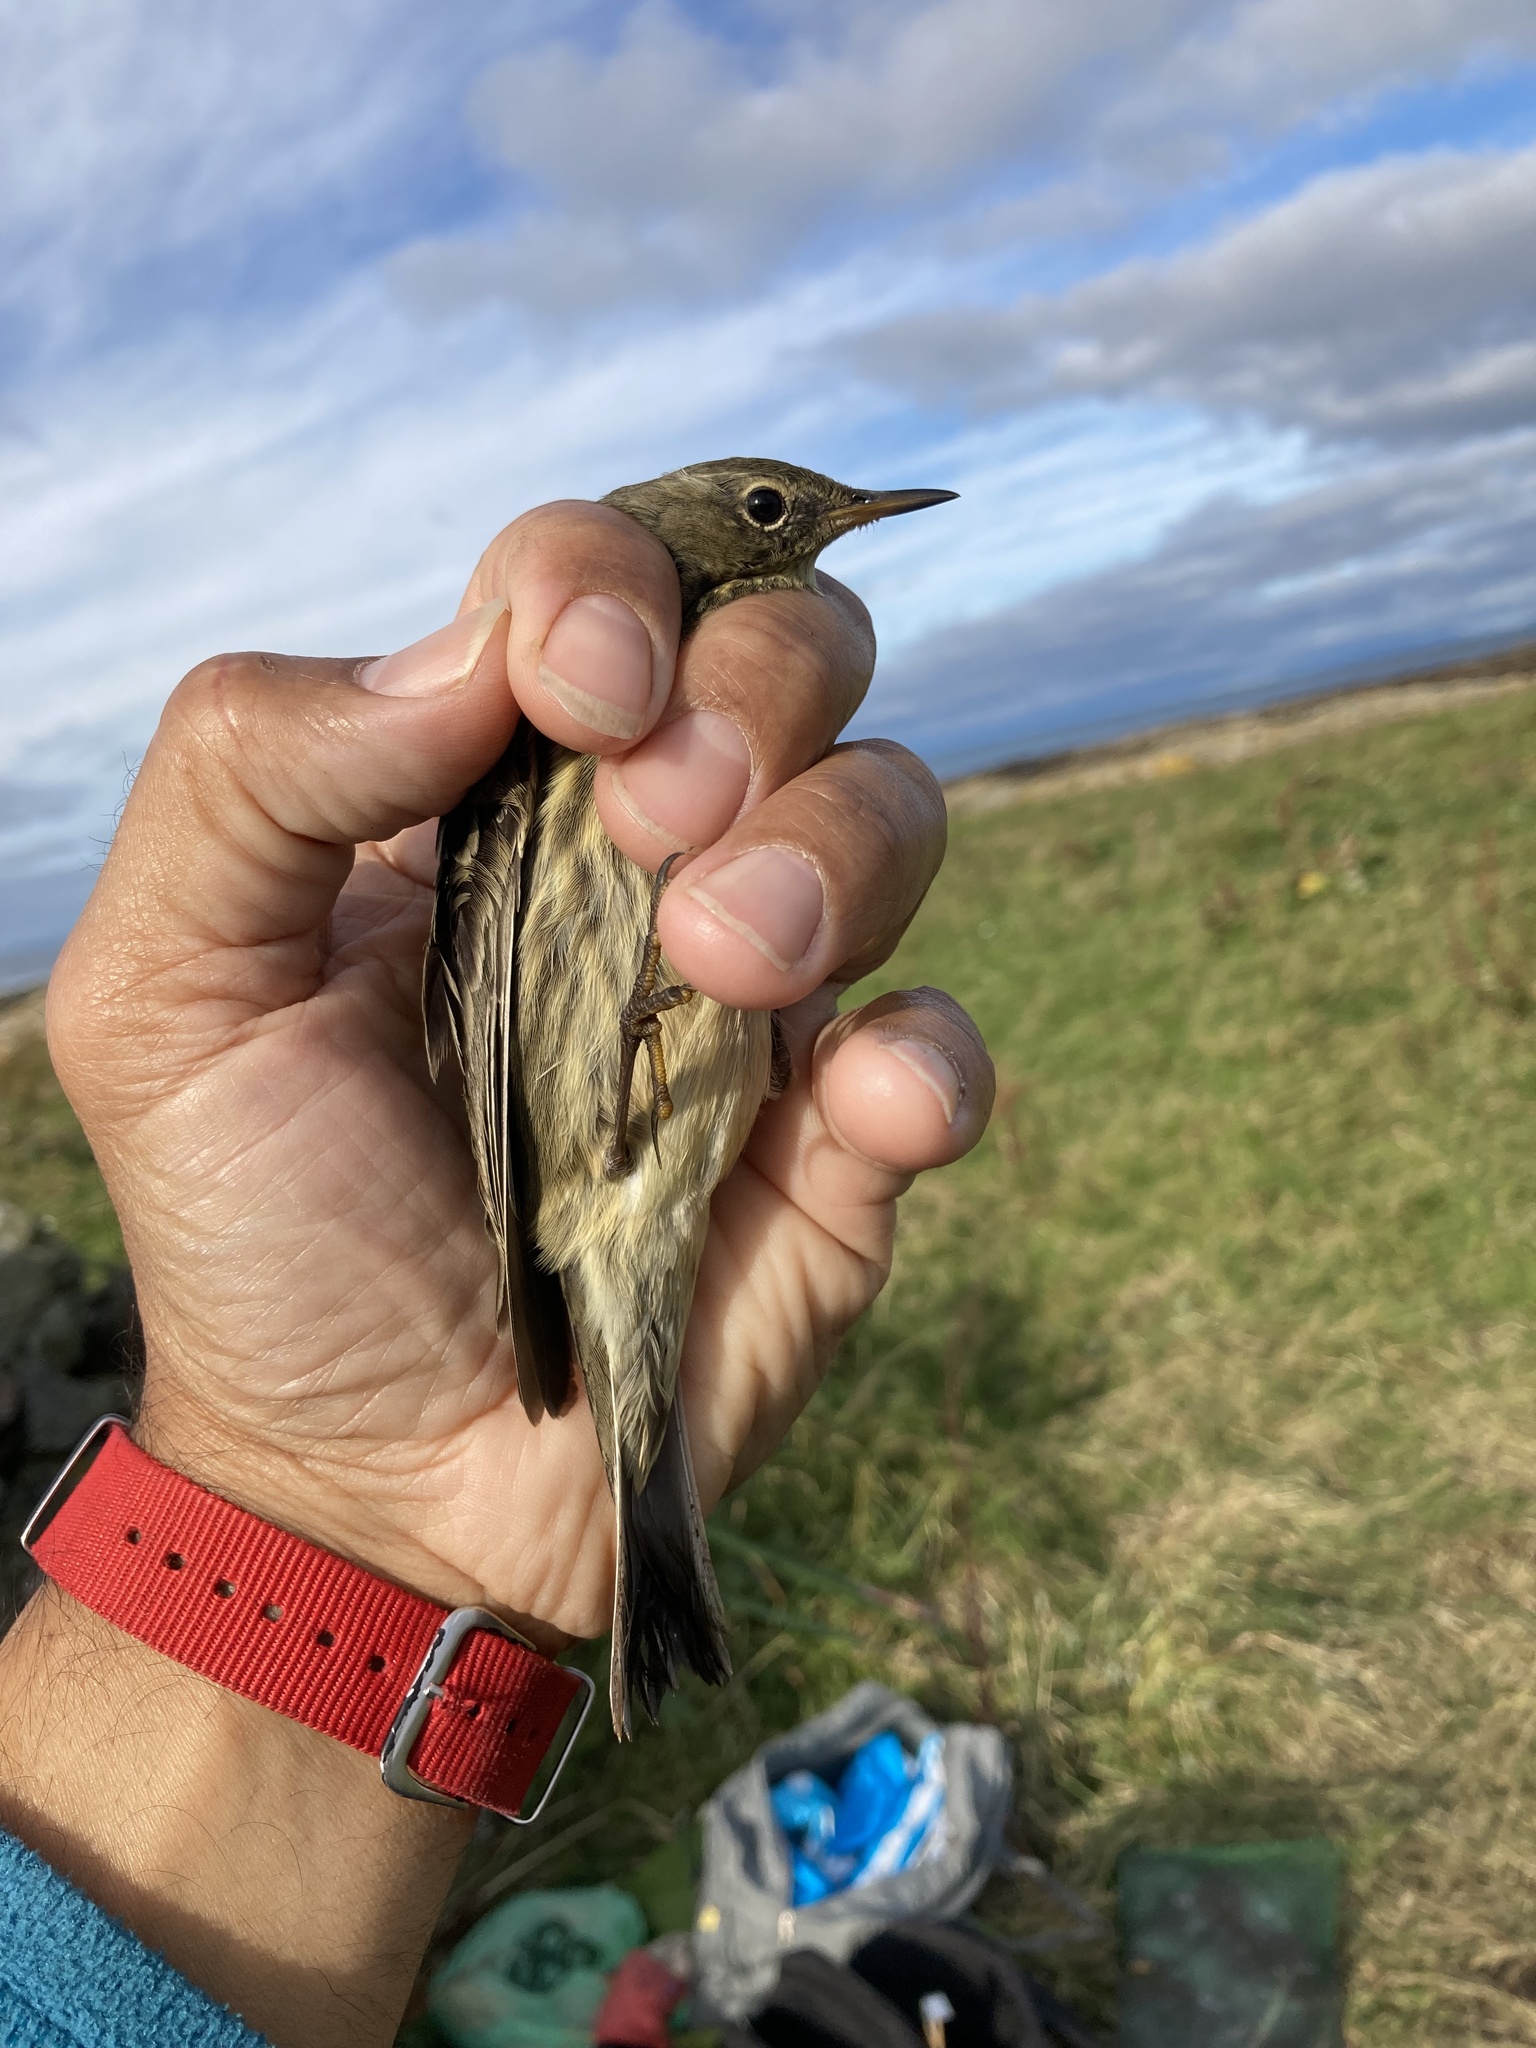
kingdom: Animalia
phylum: Chordata
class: Aves
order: Passeriformes
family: Motacillidae
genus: Anthus
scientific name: Anthus petrosus
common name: Eurasian rock pipit
